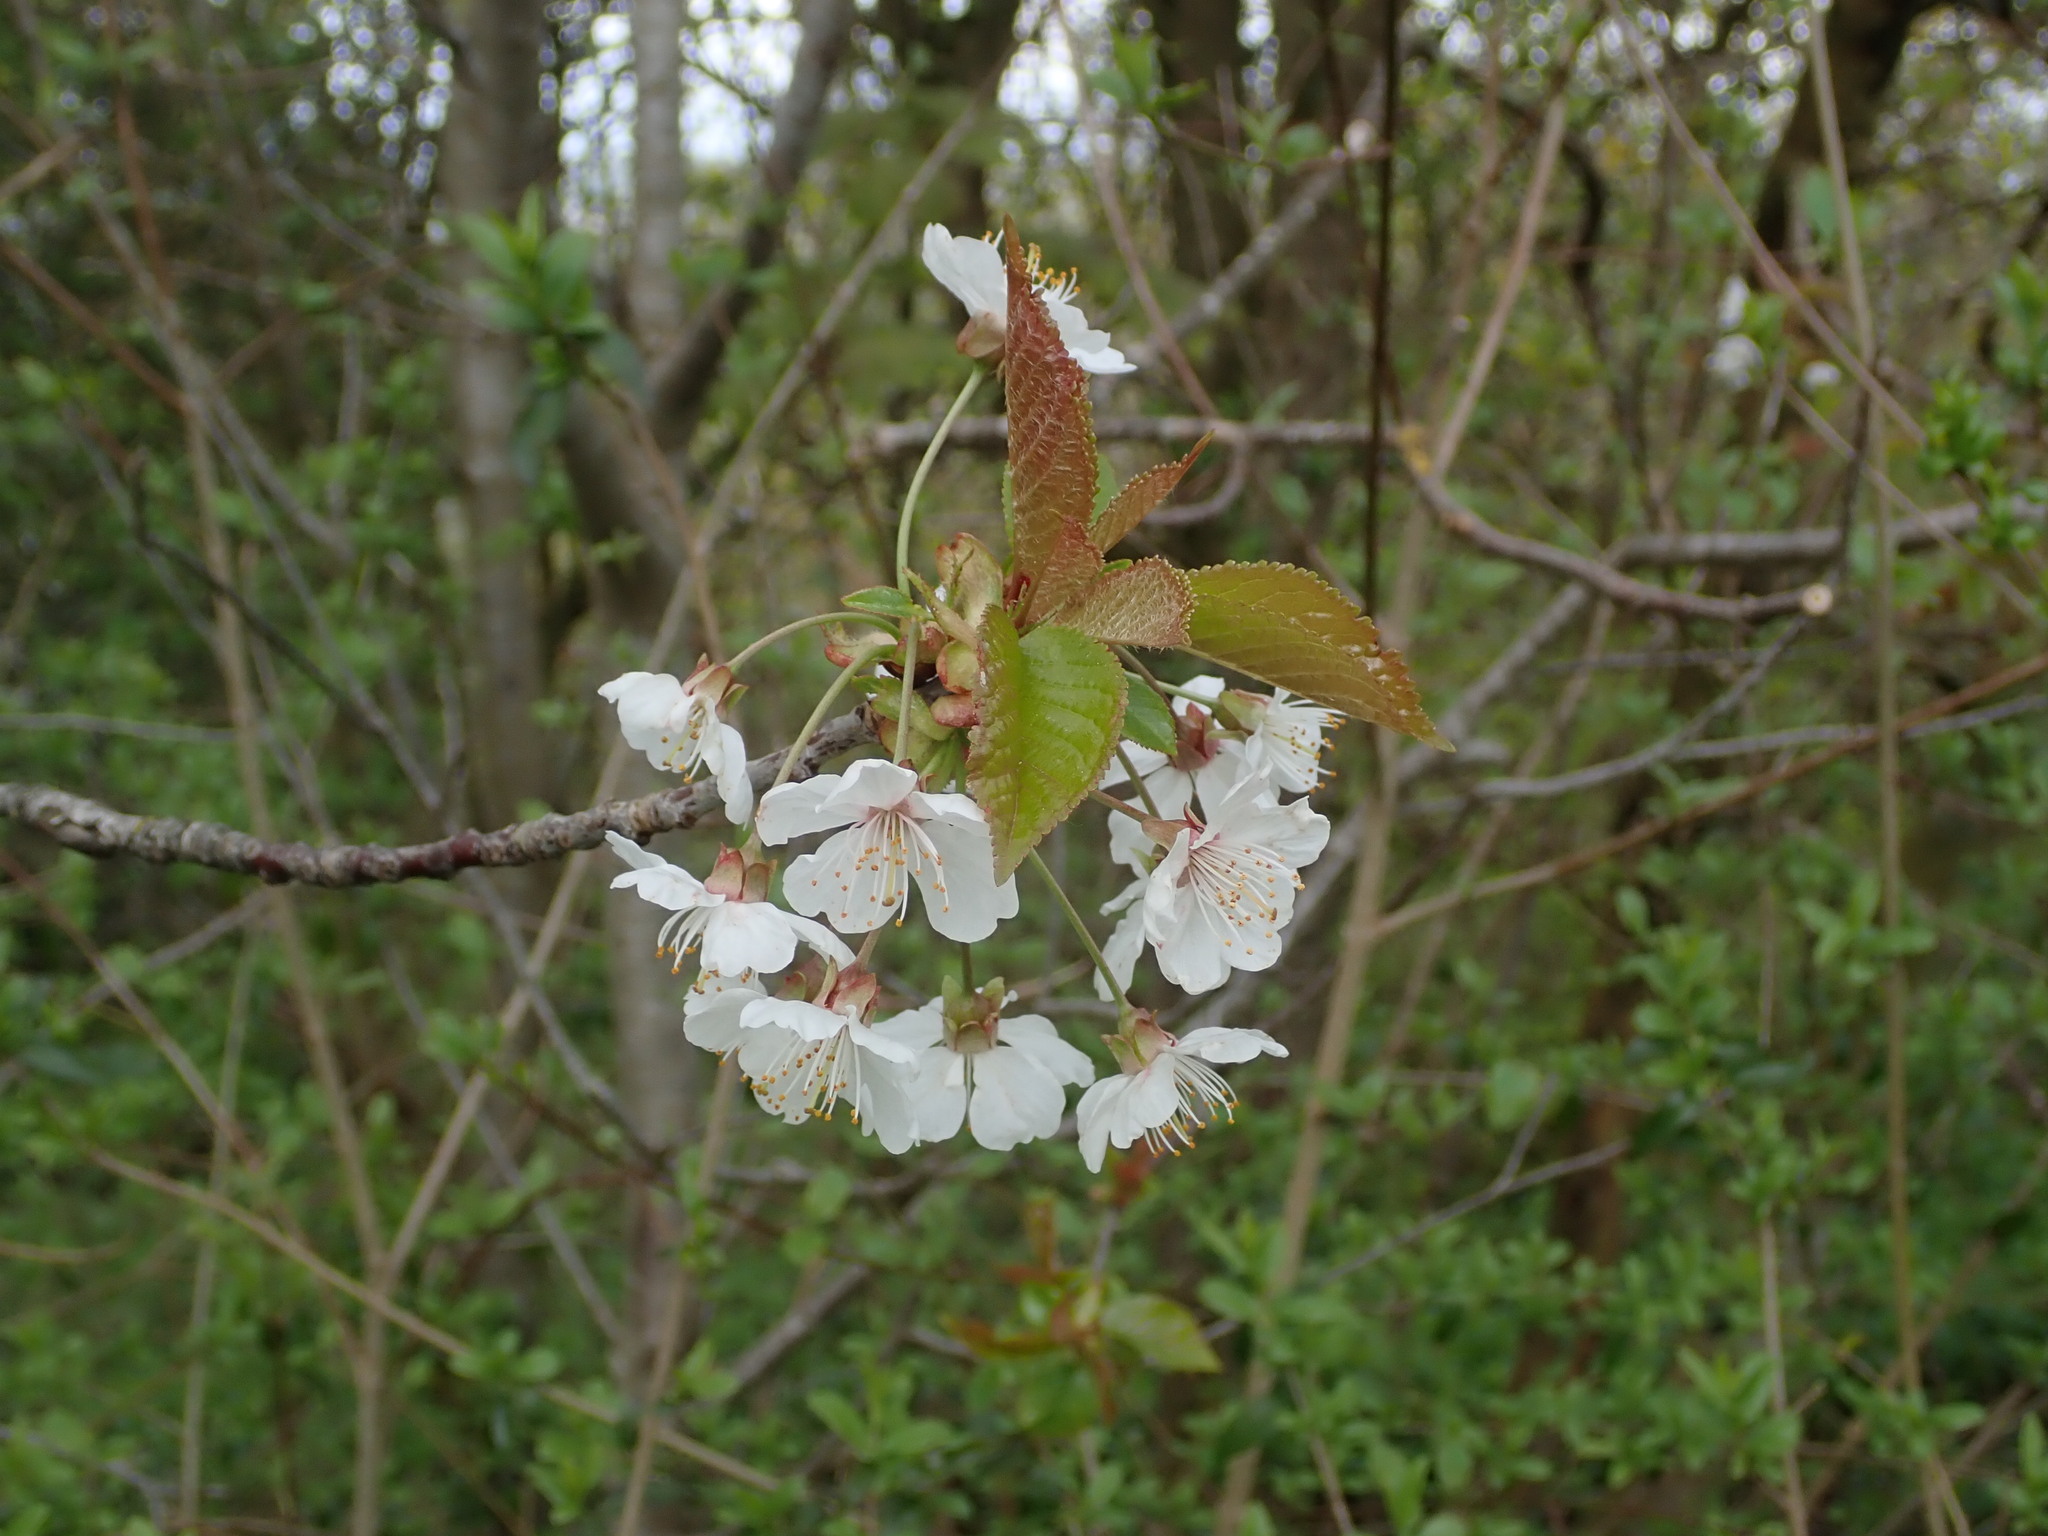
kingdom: Plantae
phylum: Tracheophyta
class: Magnoliopsida
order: Rosales
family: Rosaceae
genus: Prunus
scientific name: Prunus avium
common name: Sweet cherry
